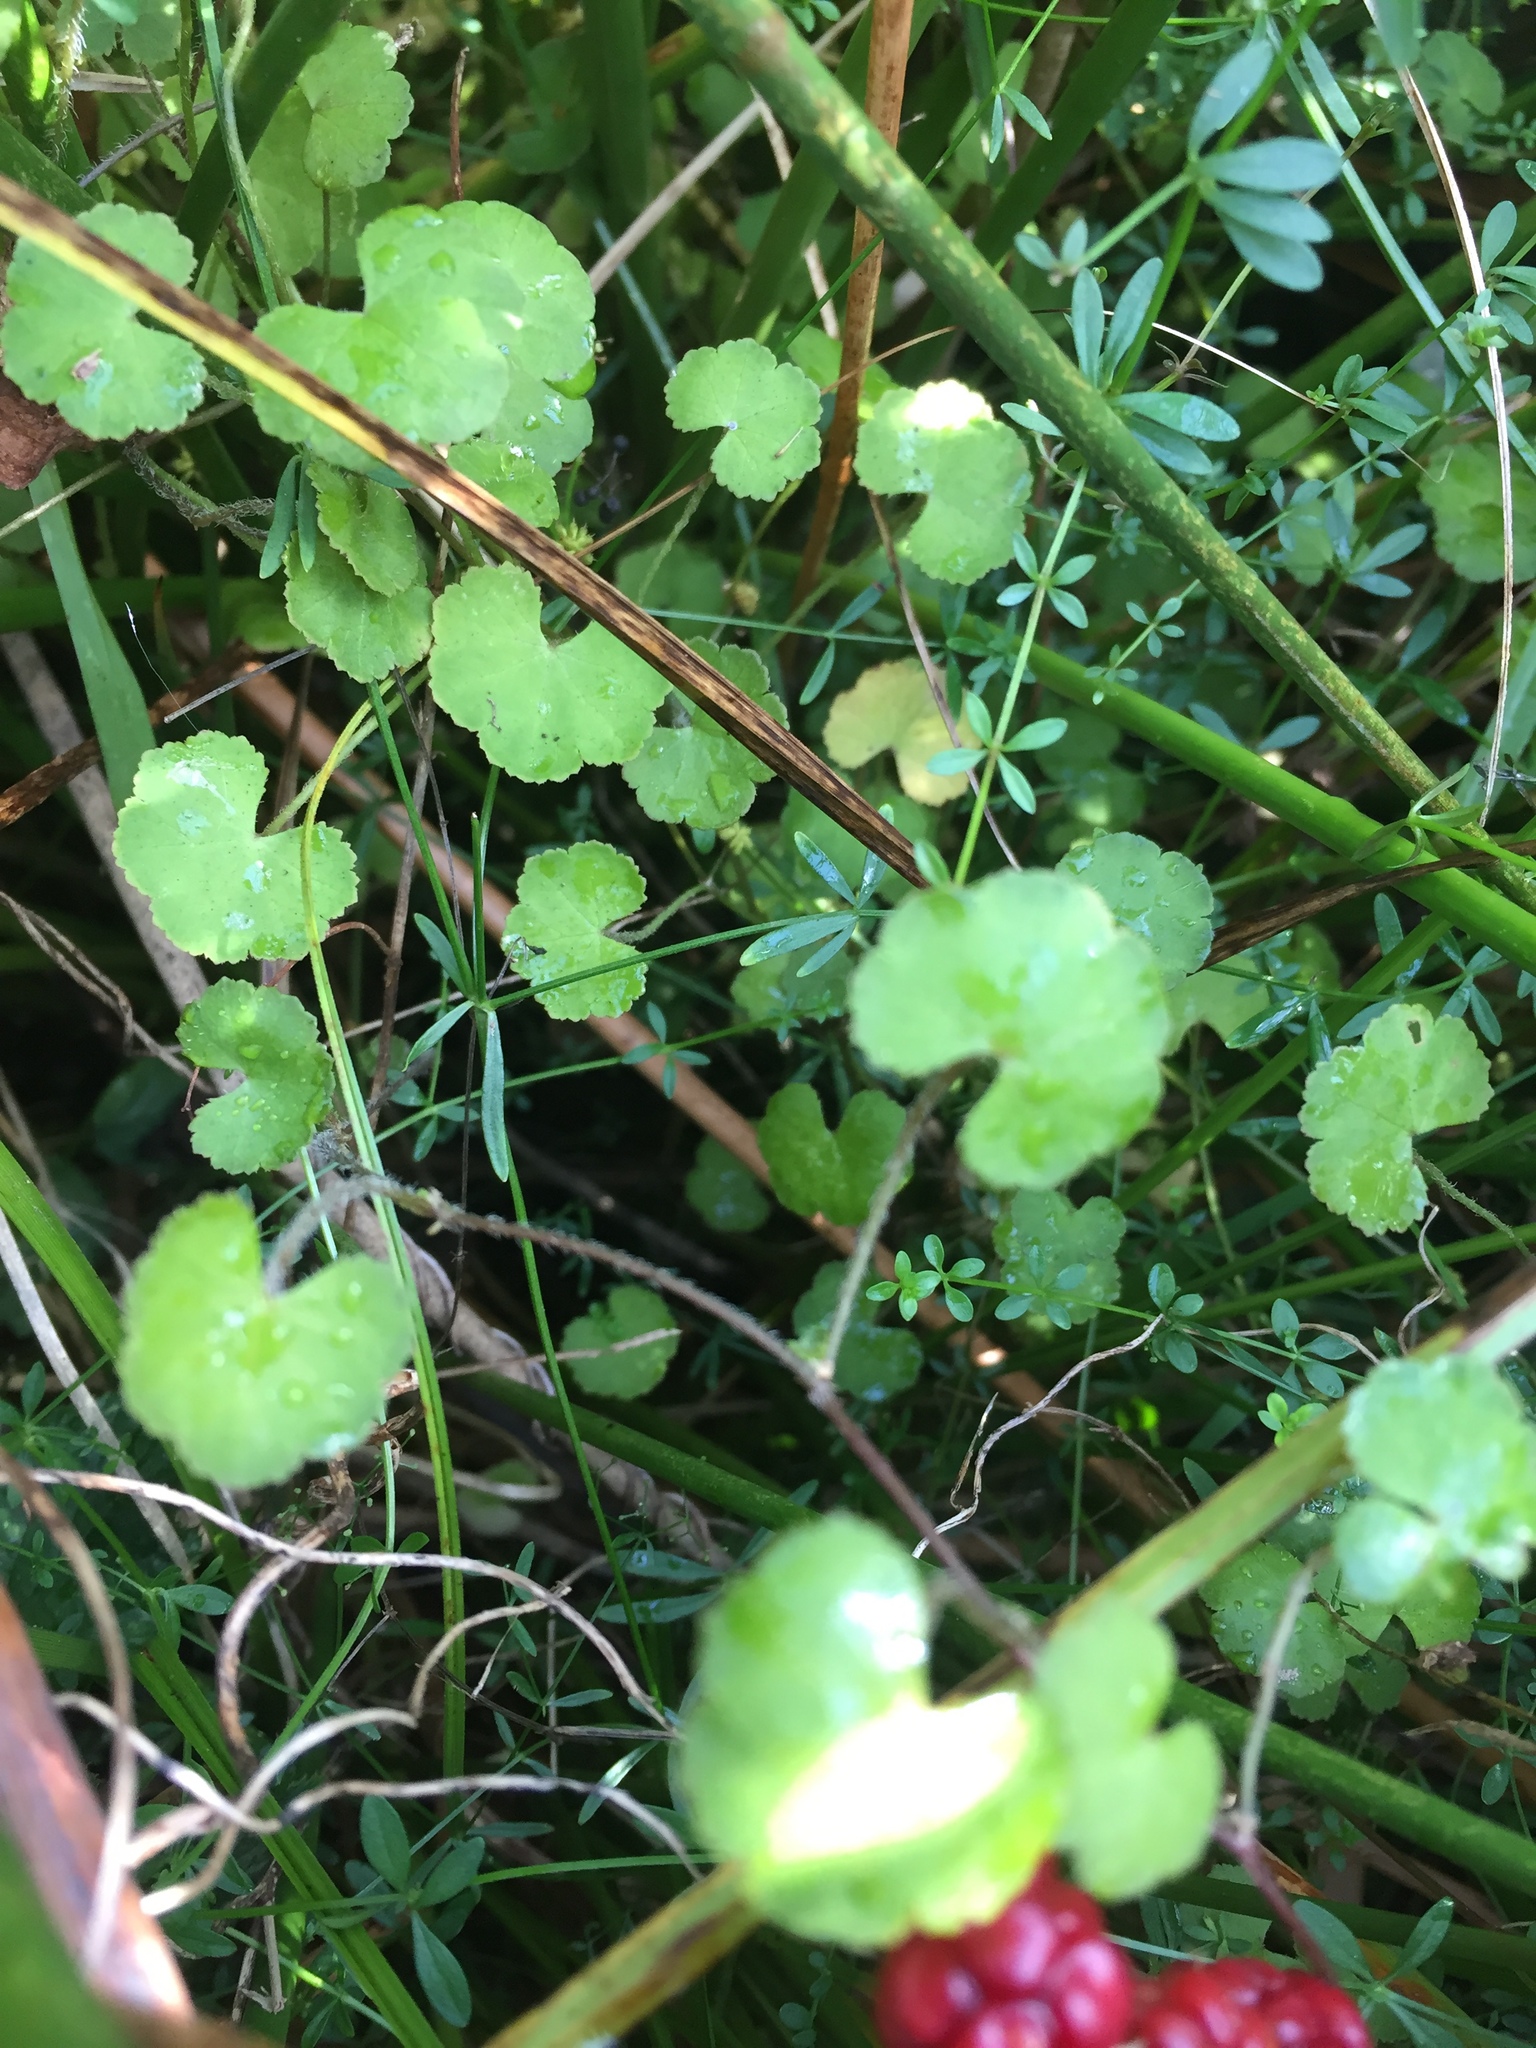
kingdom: Plantae
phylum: Tracheophyta
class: Magnoliopsida
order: Apiales
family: Araliaceae
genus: Hydrocotyle
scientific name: Hydrocotyle novae-zeelandiae
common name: New zealand pennywort
